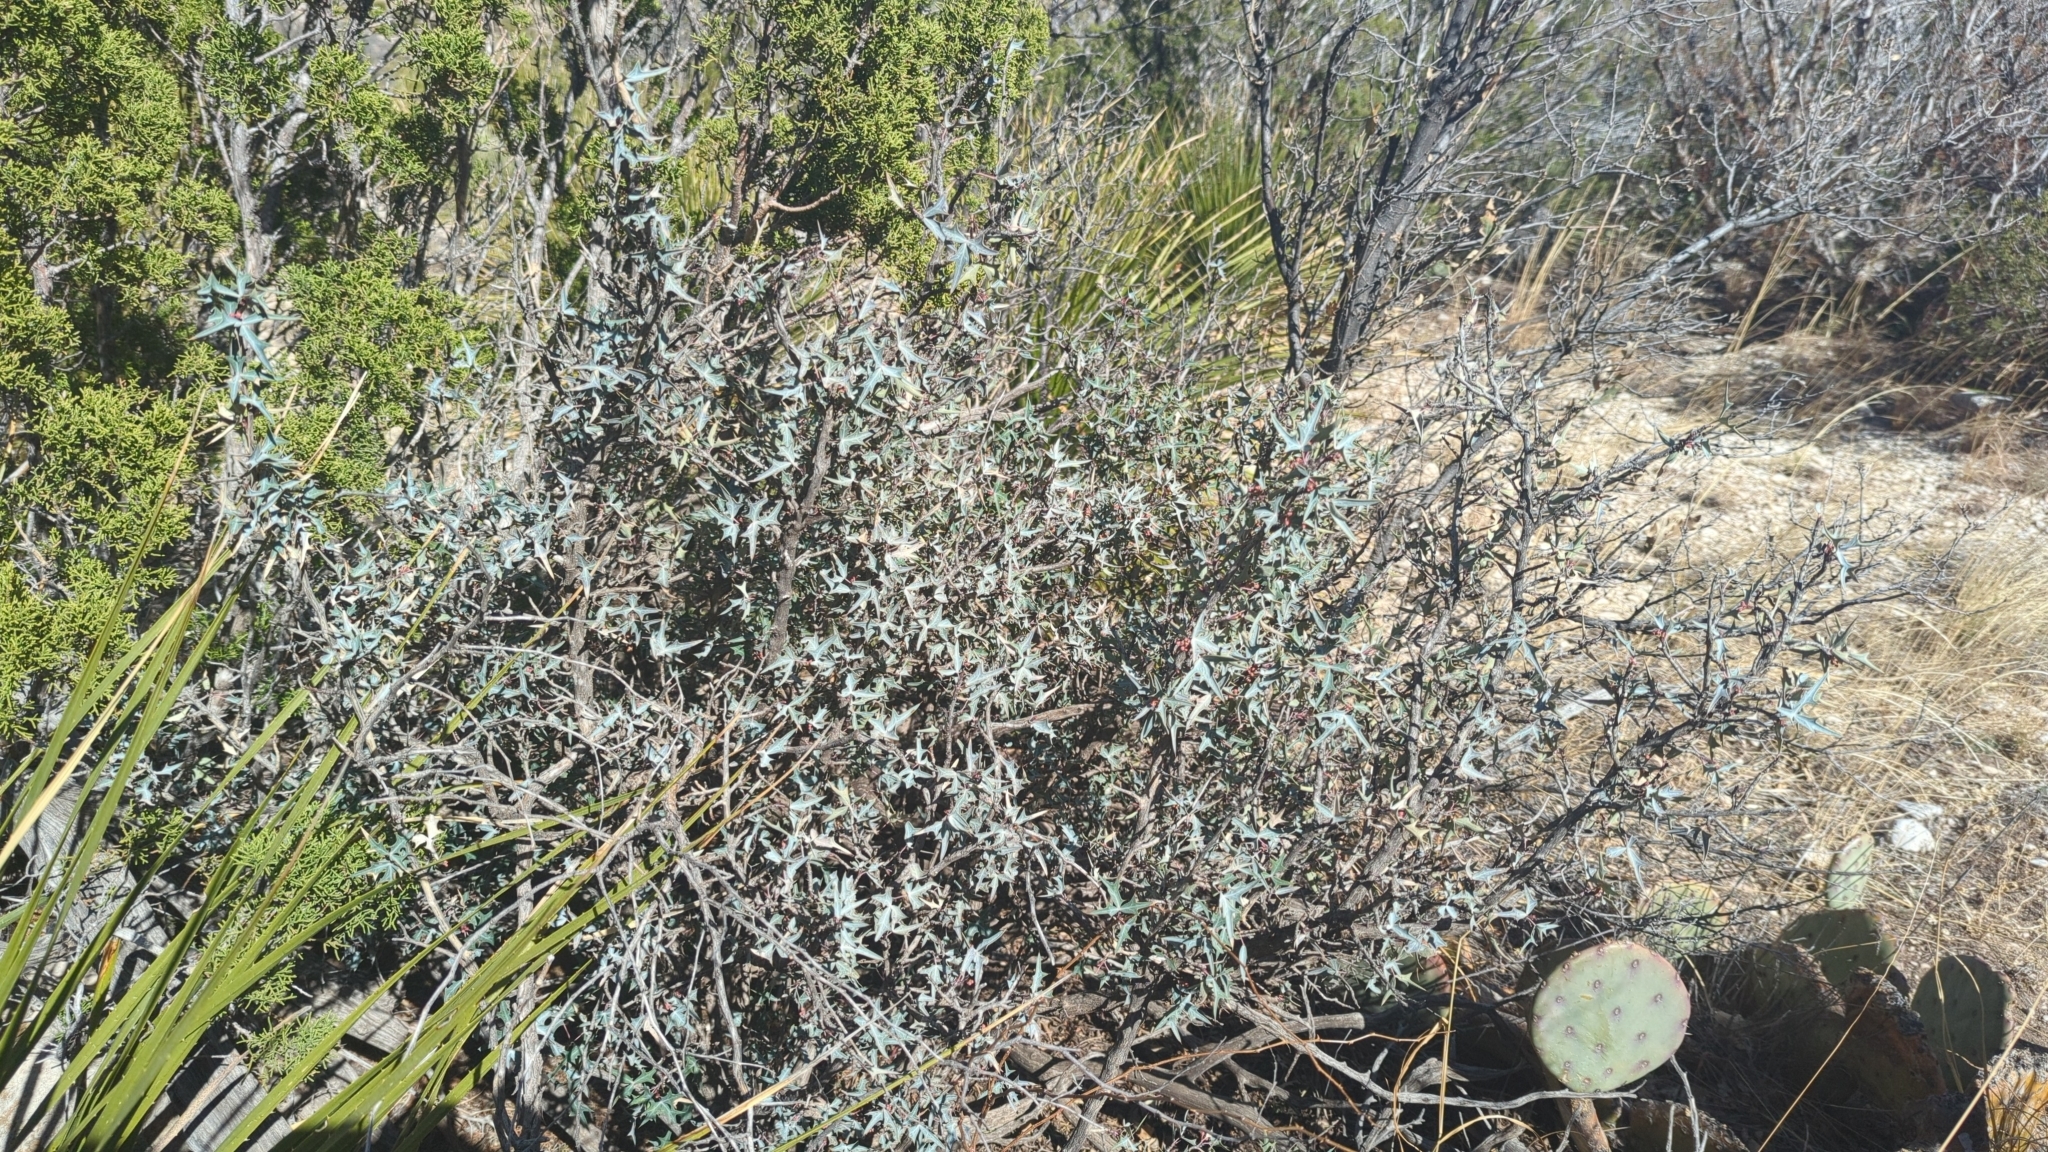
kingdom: Plantae
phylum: Tracheophyta
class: Magnoliopsida
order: Ranunculales
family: Berberidaceae
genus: Alloberberis
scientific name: Alloberberis trifoliolata
